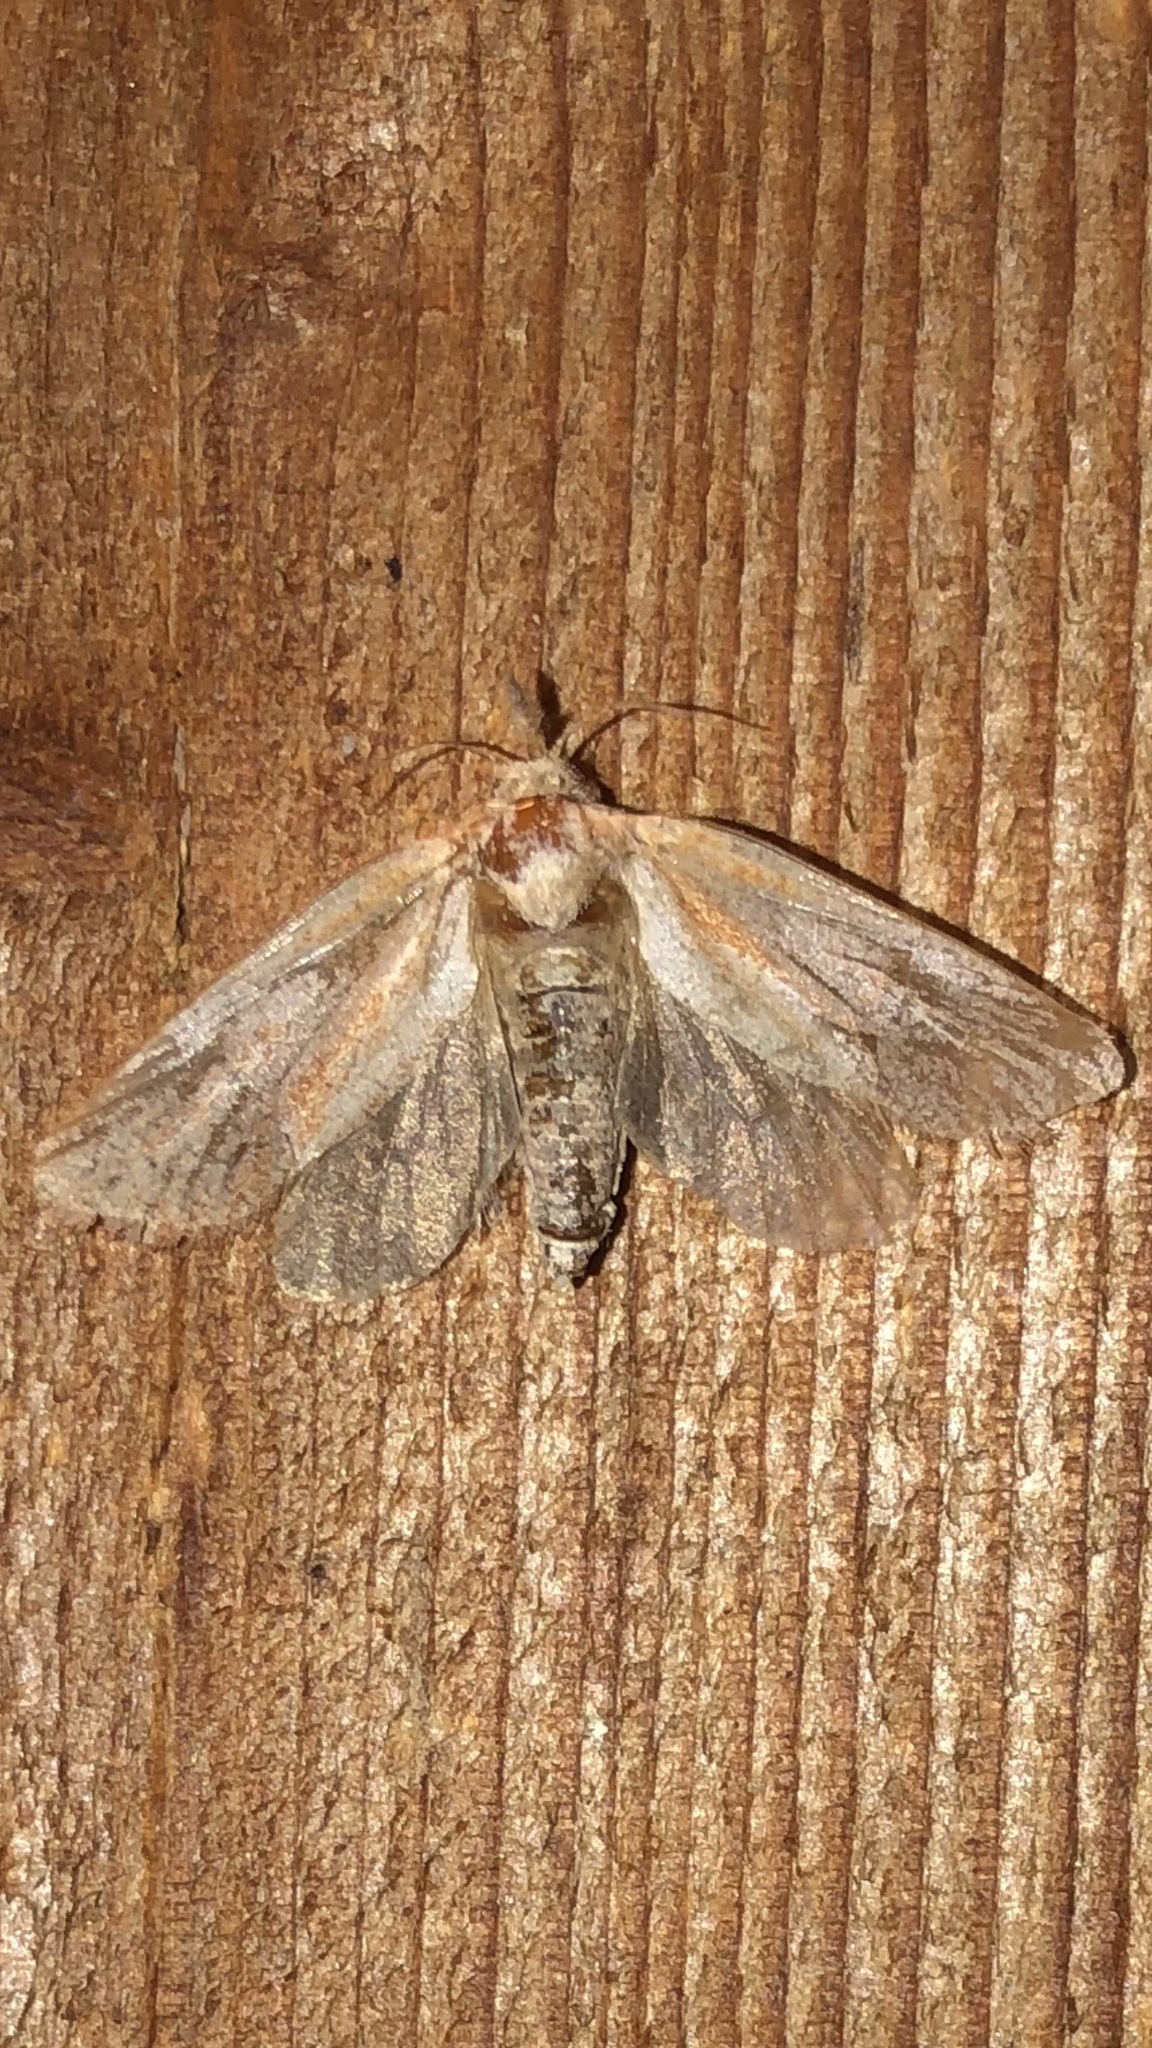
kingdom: Animalia
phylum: Arthropoda
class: Insecta
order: Lepidoptera
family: Tineidae
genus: Acrolophus
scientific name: Acrolophus plumifrontella
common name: Eastern grass tubeworm moth
